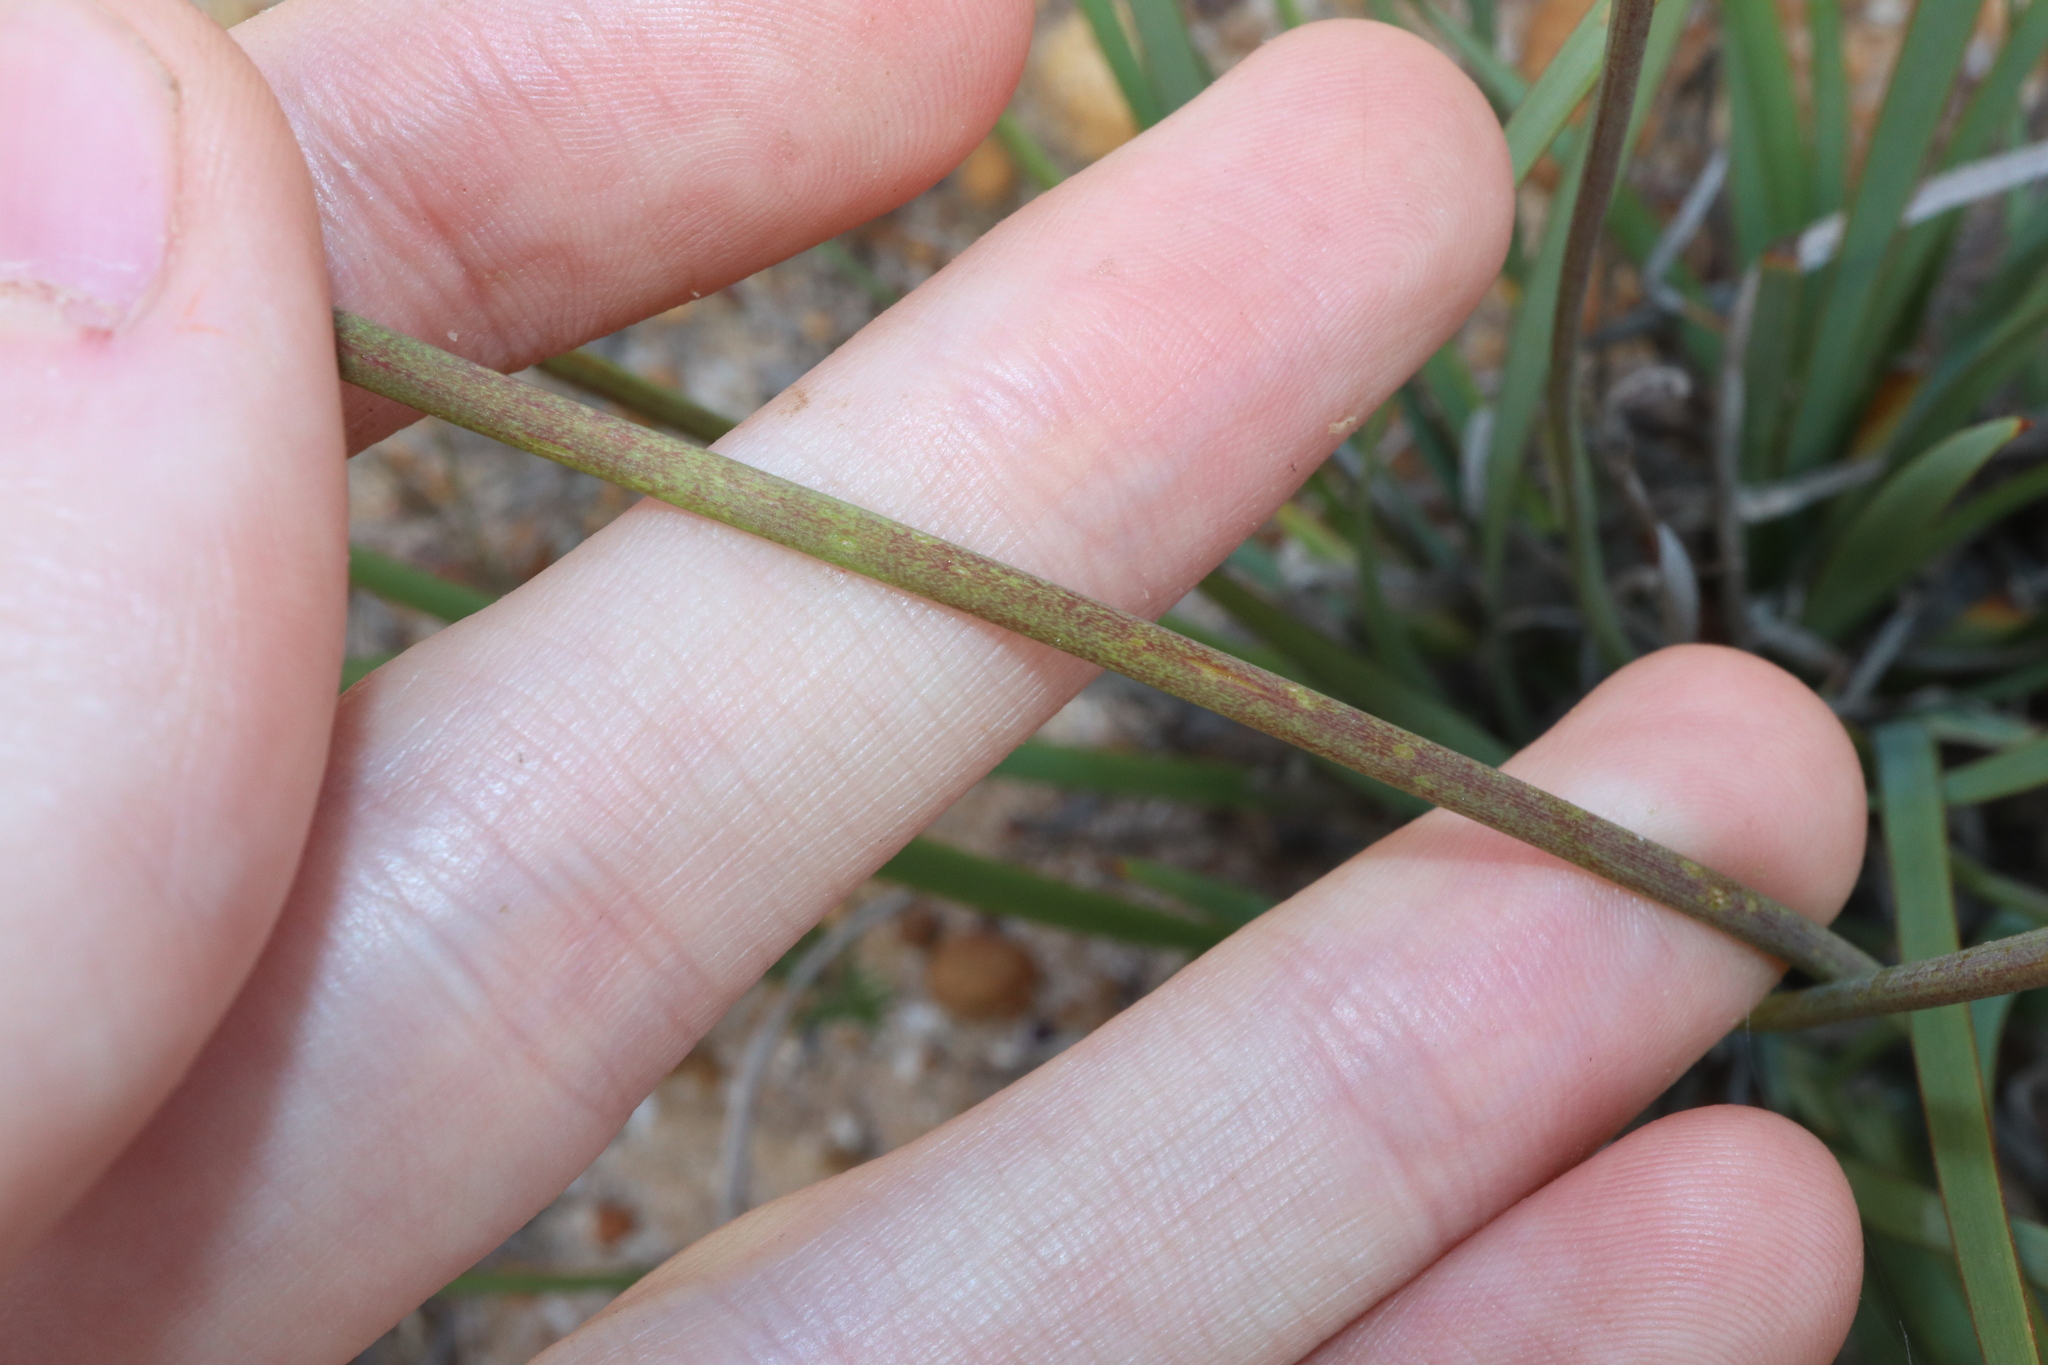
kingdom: Plantae
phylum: Tracheophyta
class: Liliopsida
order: Asparagales
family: Iridaceae
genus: Patersonia
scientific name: Patersonia occidentalis
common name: Long purple-flag
